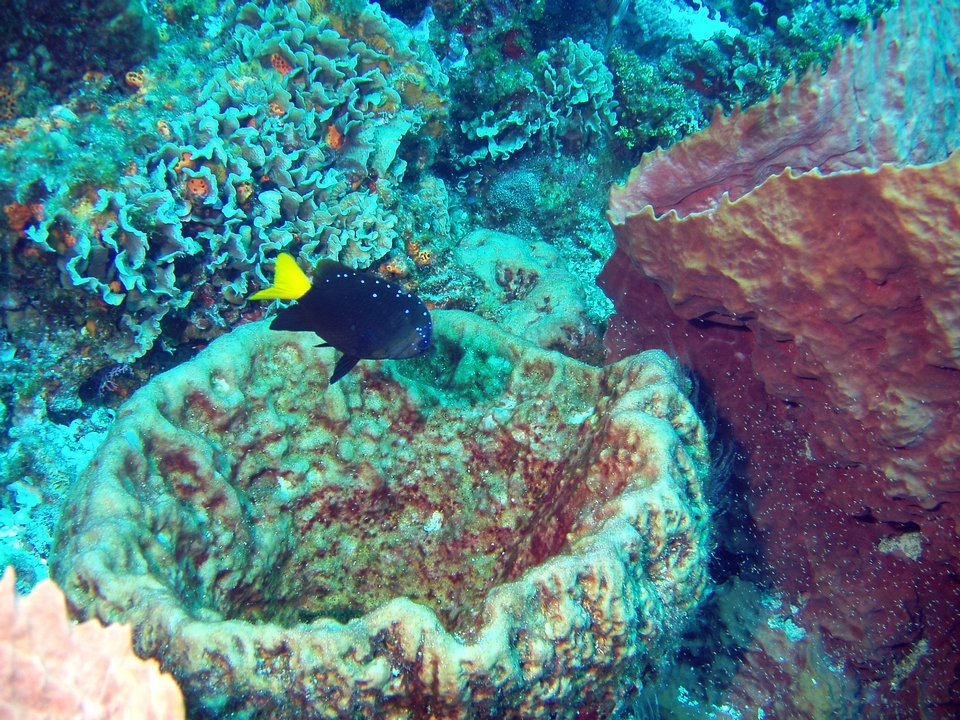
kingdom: Animalia
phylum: Chordata
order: Perciformes
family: Pomacentridae
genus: Microspathodon
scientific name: Microspathodon chrysurus
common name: Yellowtail damselfish
